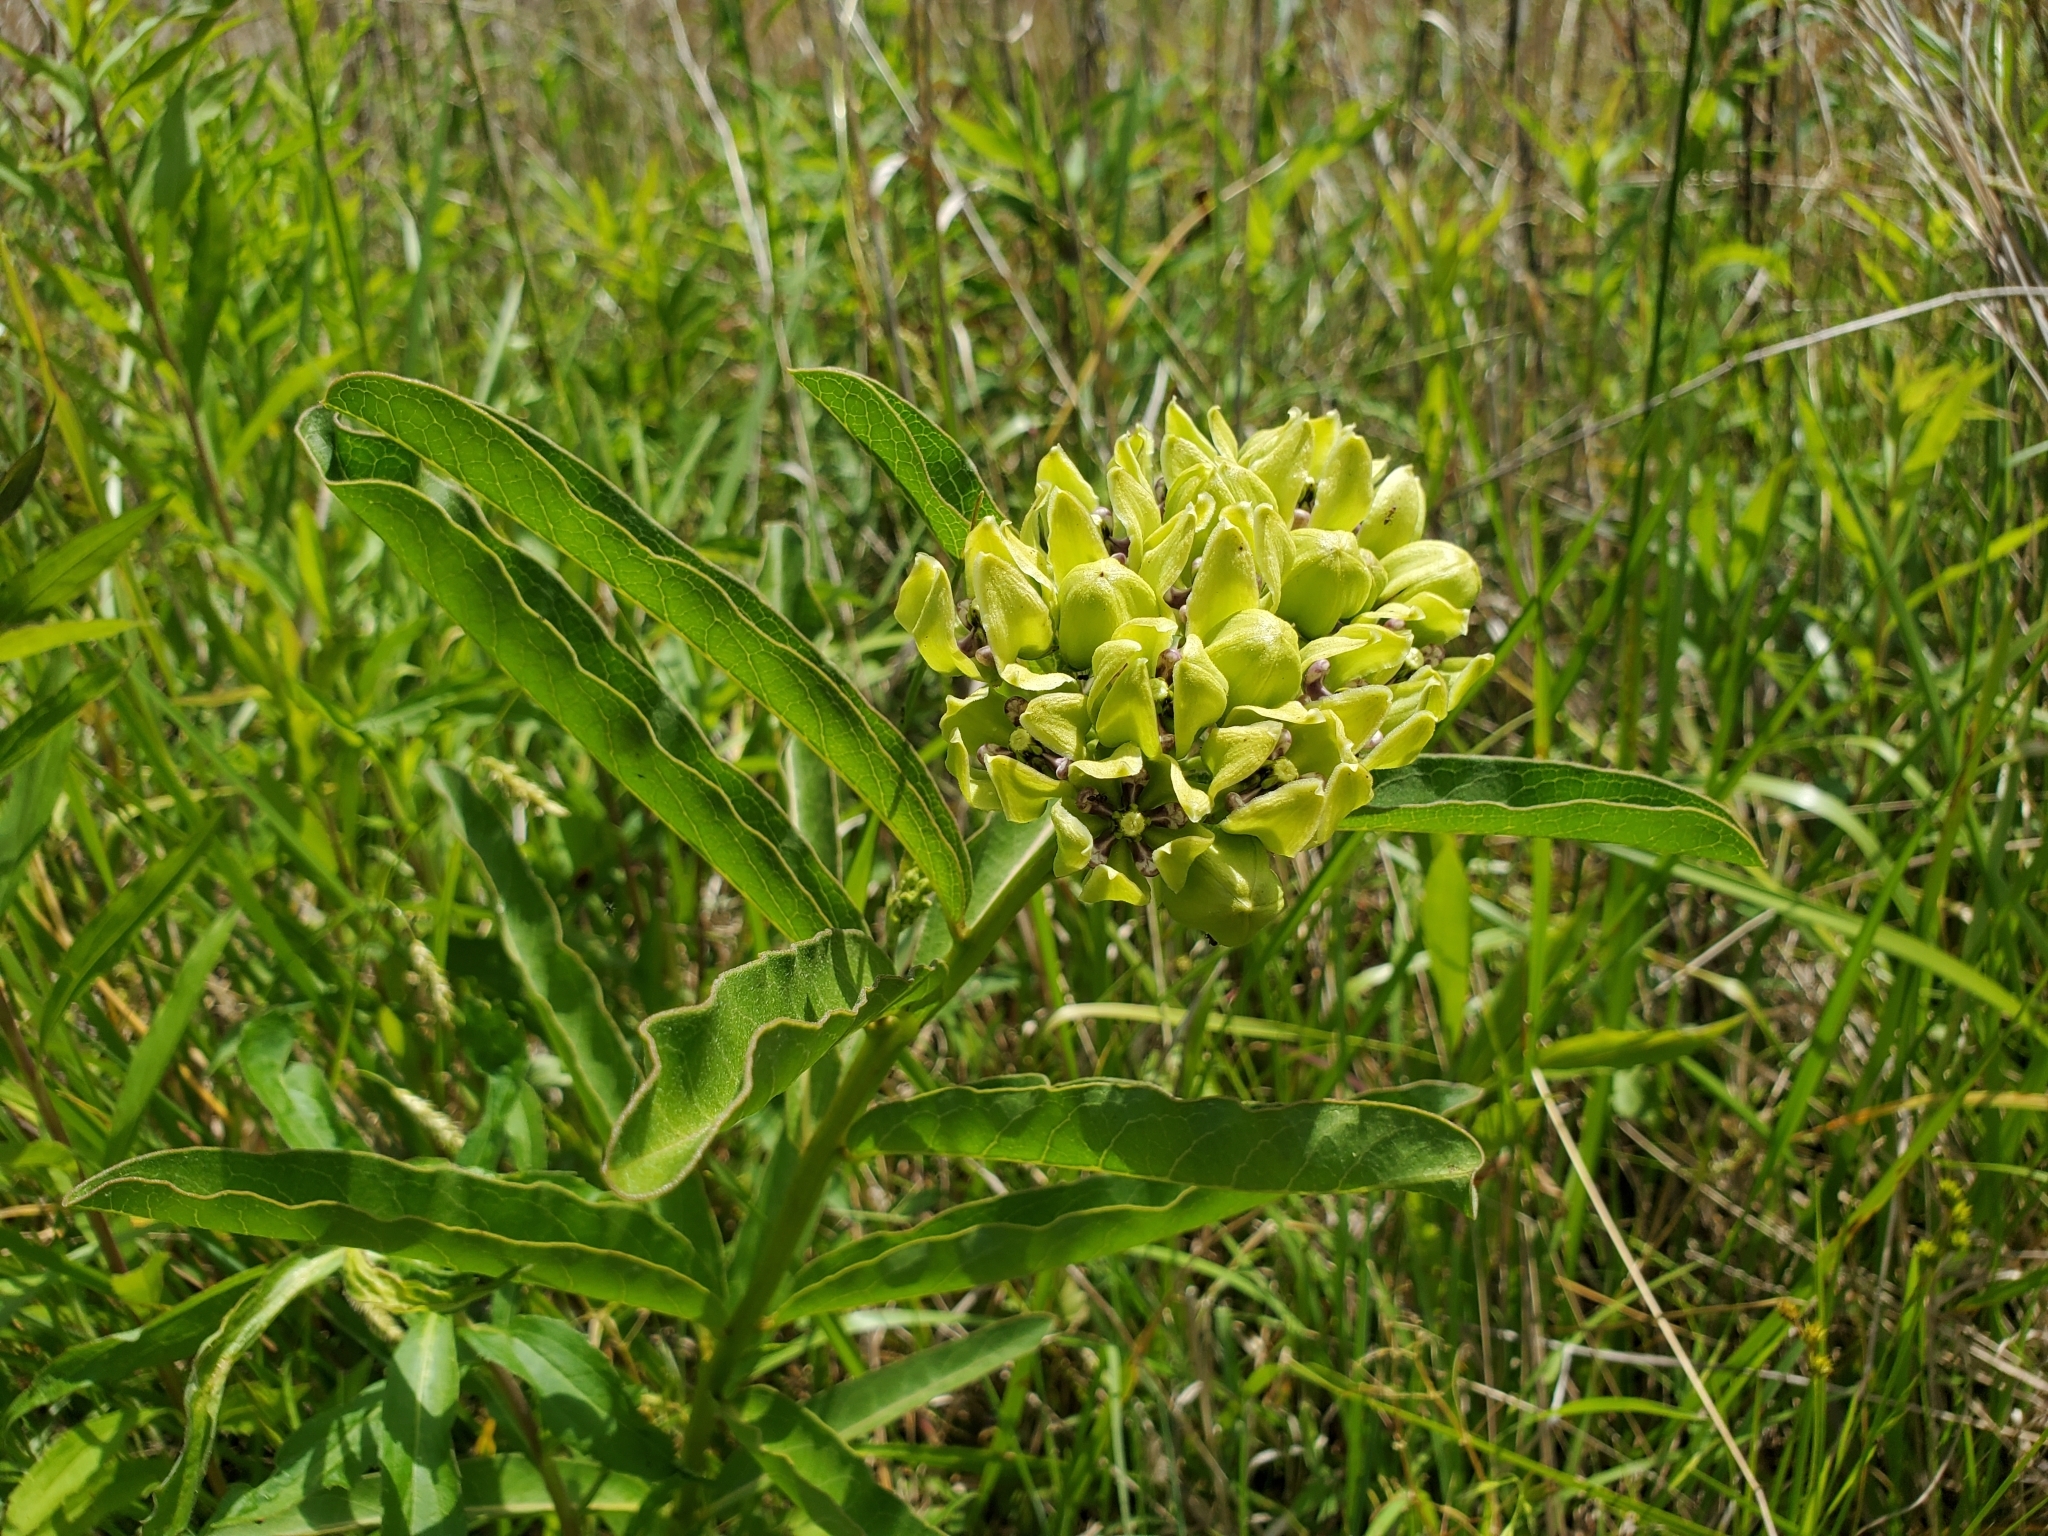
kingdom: Plantae
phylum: Tracheophyta
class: Magnoliopsida
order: Gentianales
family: Apocynaceae
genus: Asclepias
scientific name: Asclepias viridis
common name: Antelope-horns
